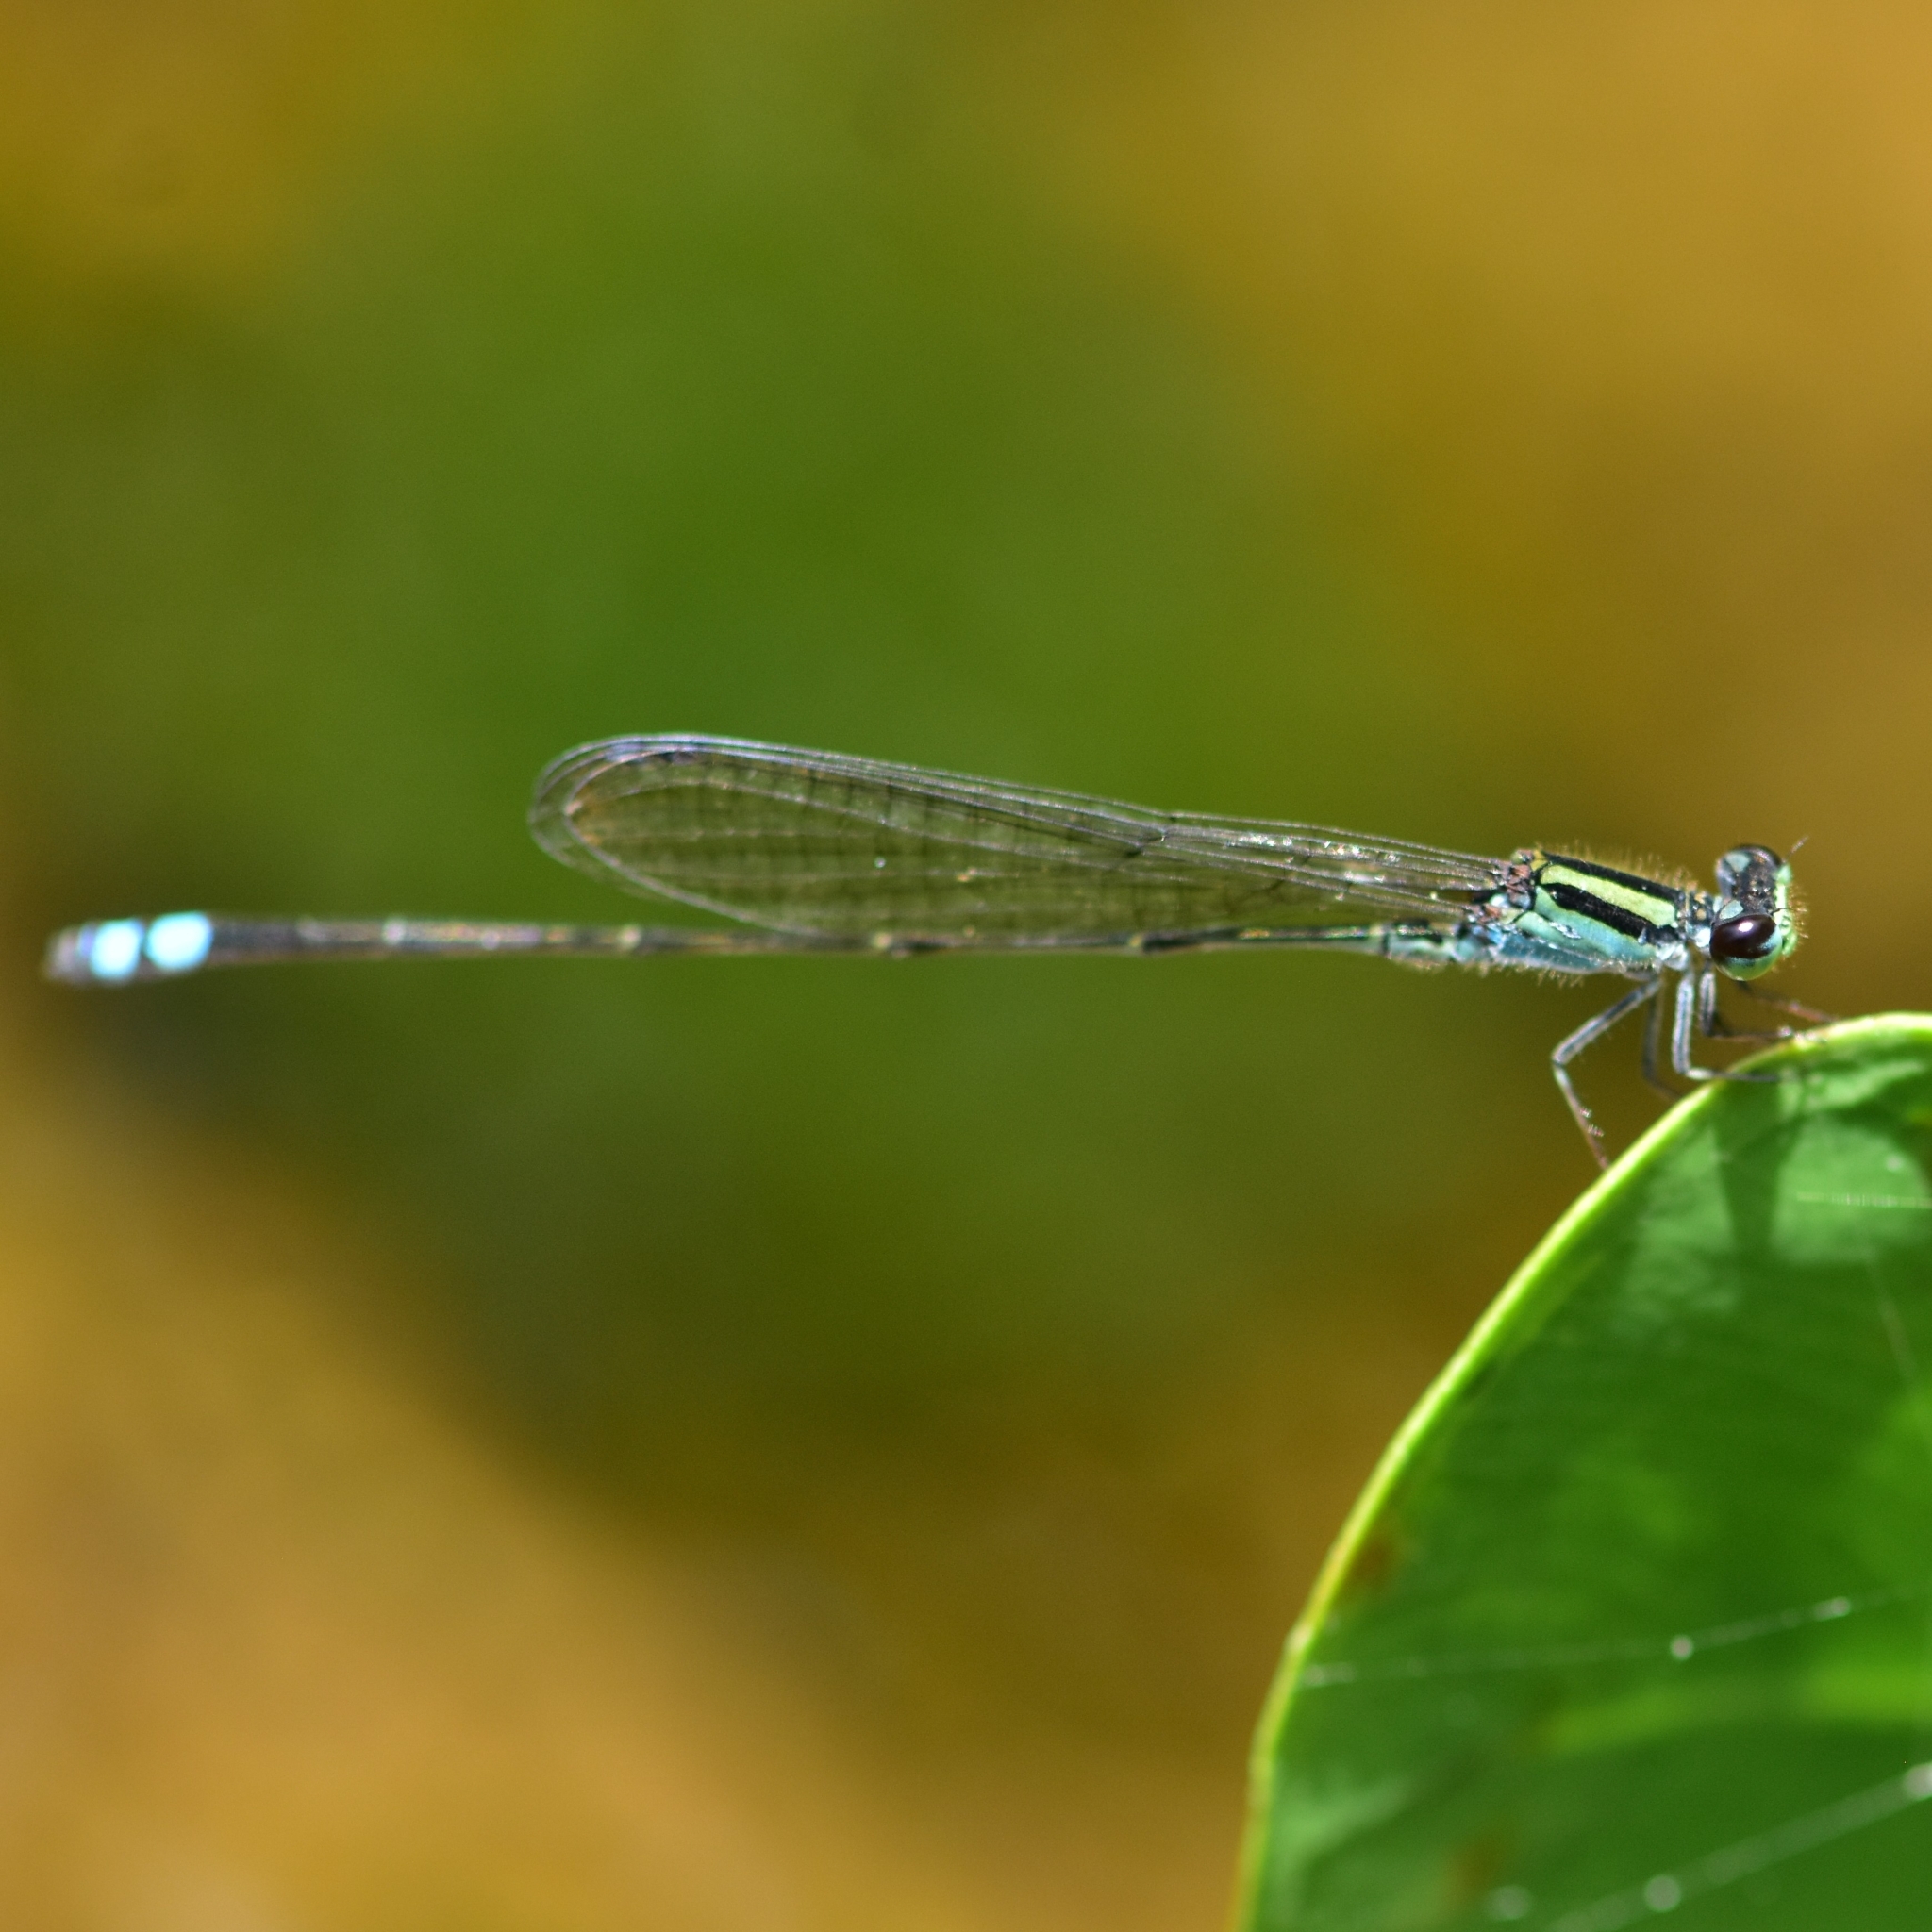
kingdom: Animalia
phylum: Arthropoda
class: Insecta
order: Odonata
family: Coenagrionidae
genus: Pseudagrion
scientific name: Pseudagrion indicum
